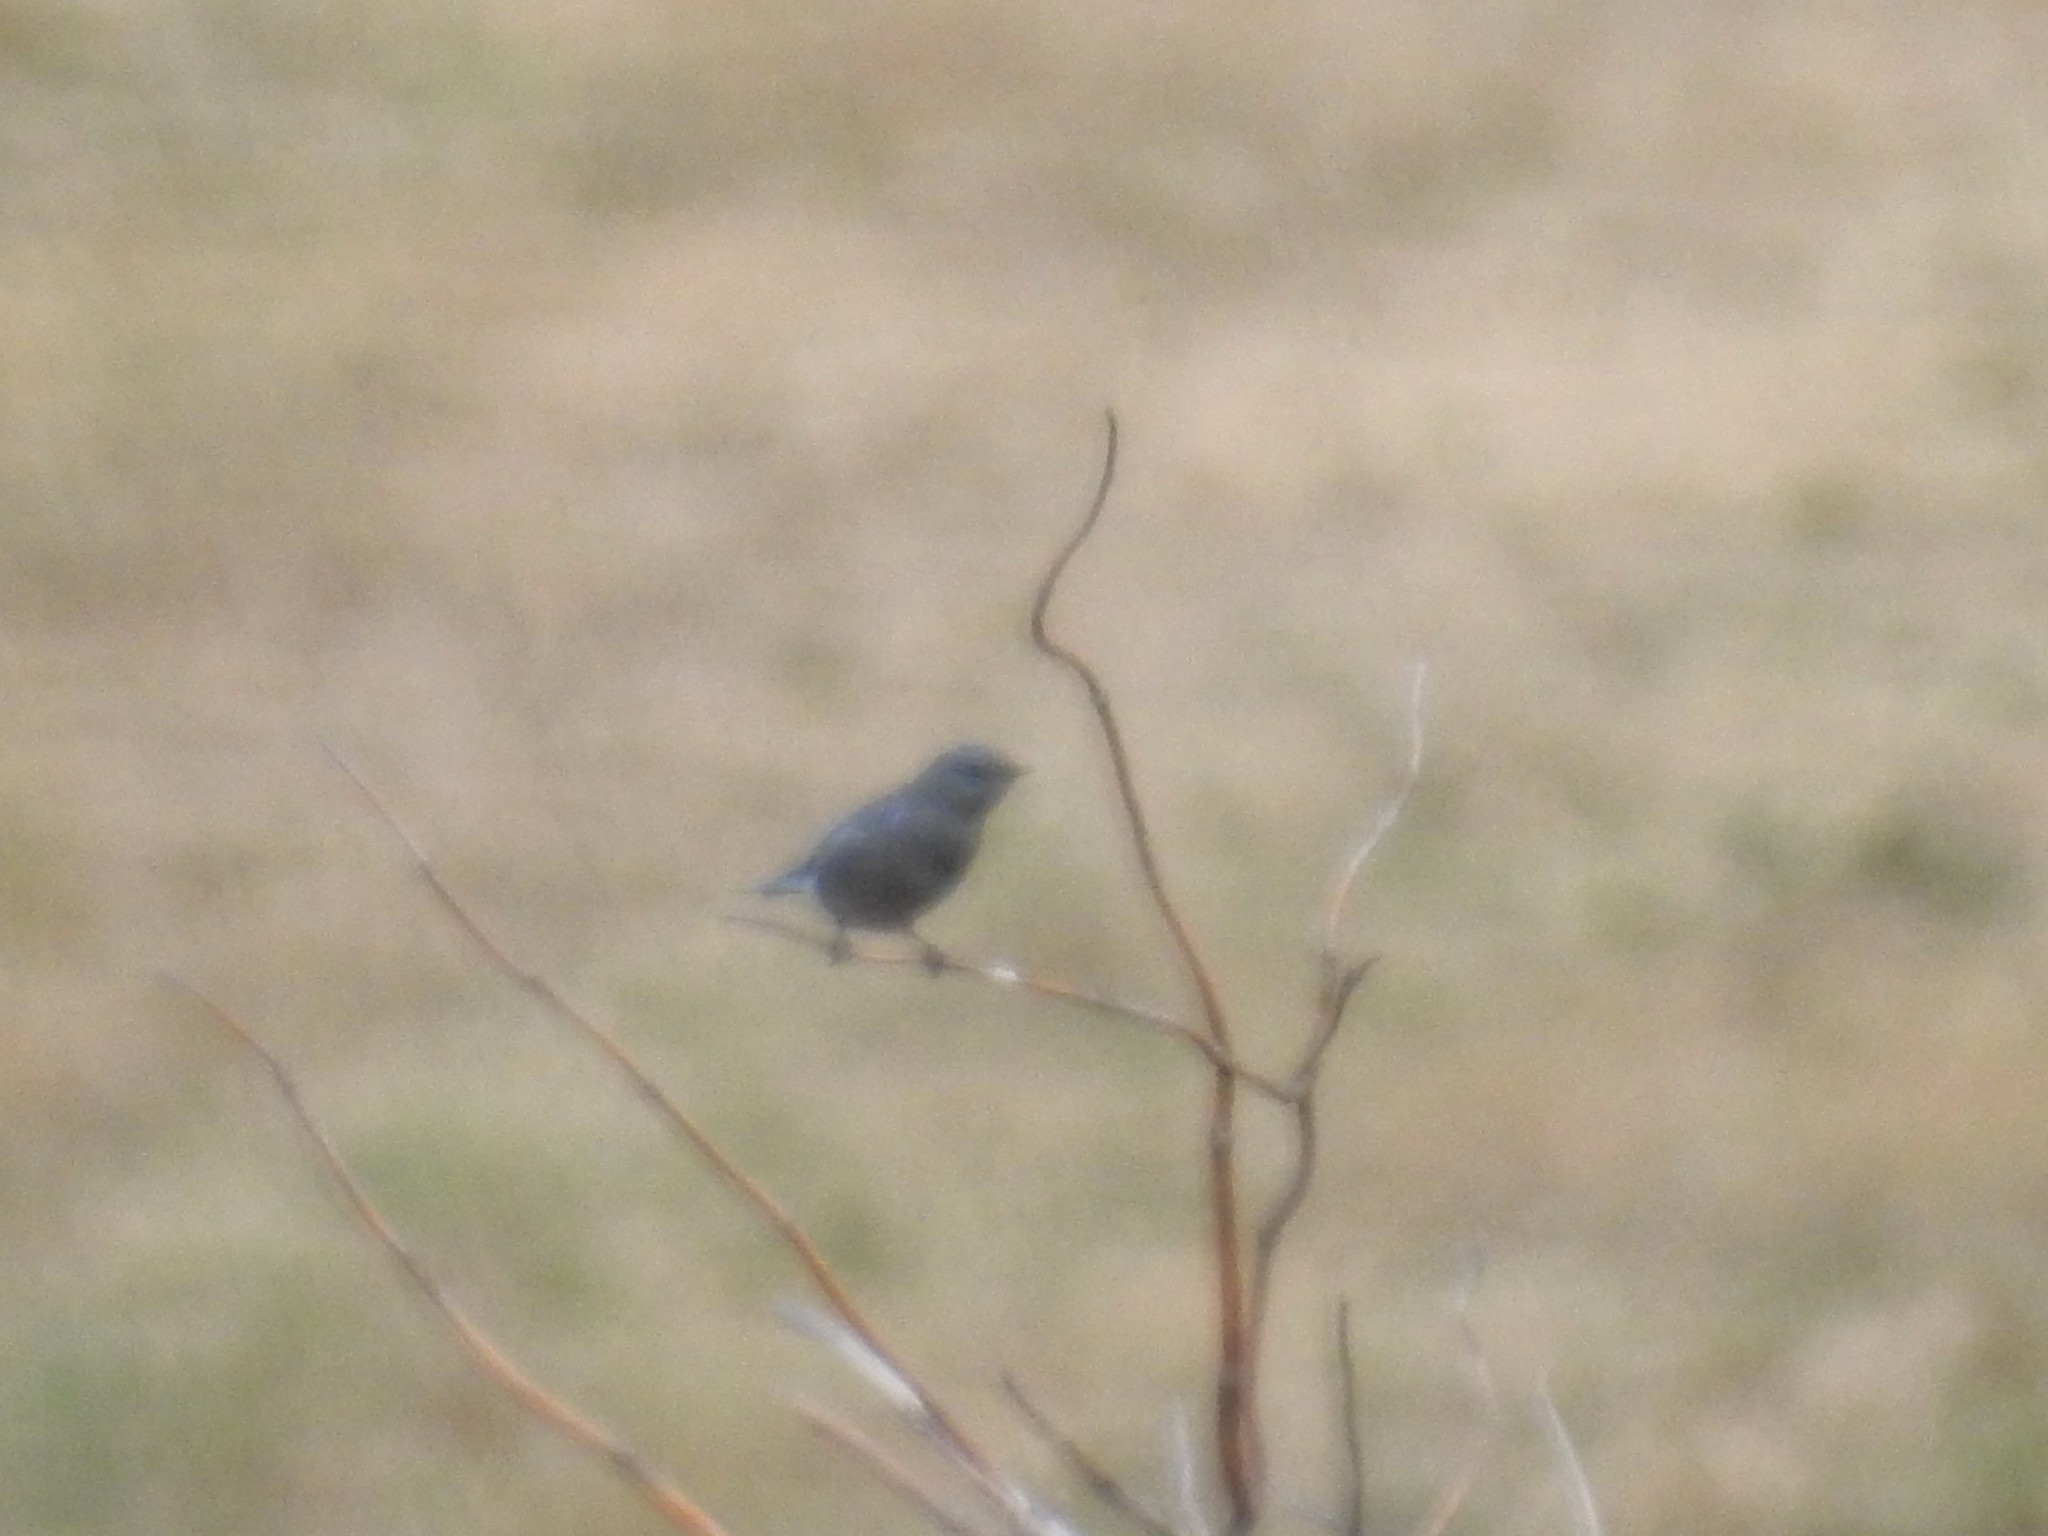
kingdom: Animalia
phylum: Chordata
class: Aves
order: Passeriformes
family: Turdidae
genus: Sialia
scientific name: Sialia currucoides
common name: Mountain bluebird
